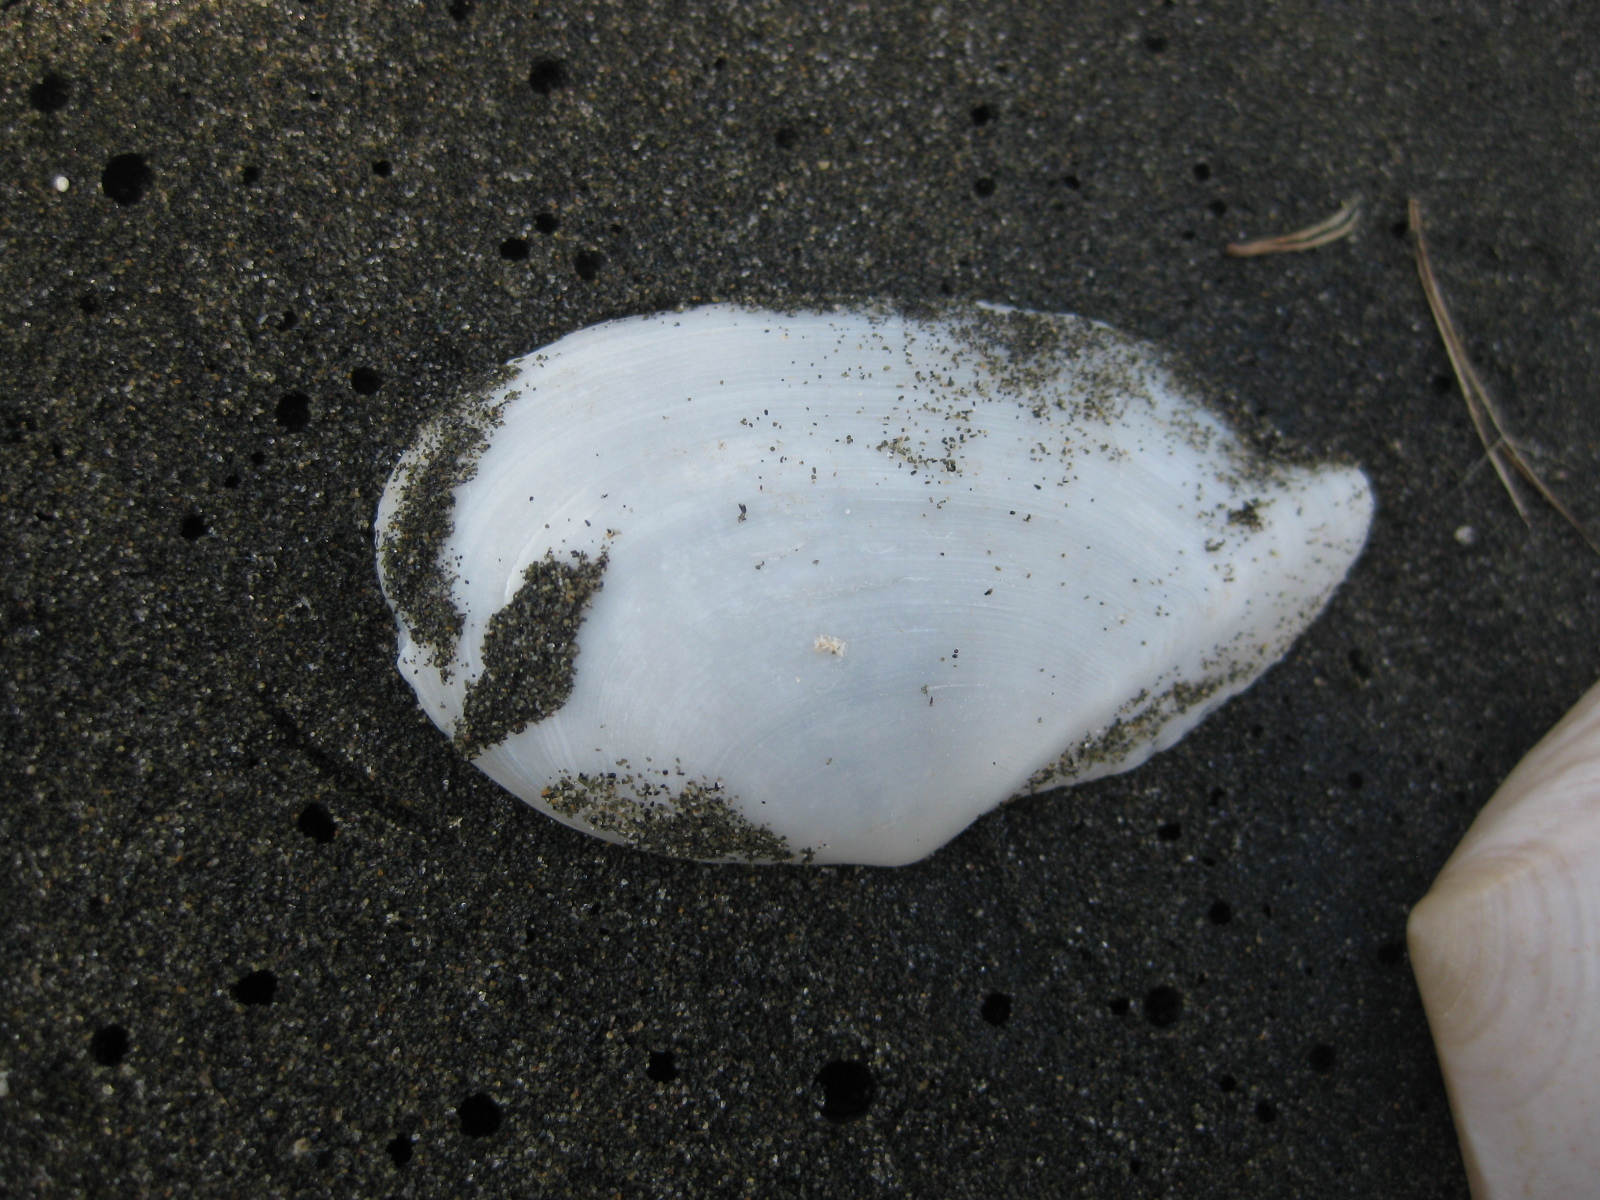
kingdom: Animalia
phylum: Mollusca
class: Bivalvia
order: Cardiida
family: Tellinidae
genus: Ardeamya
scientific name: Ardeamya spenceri
